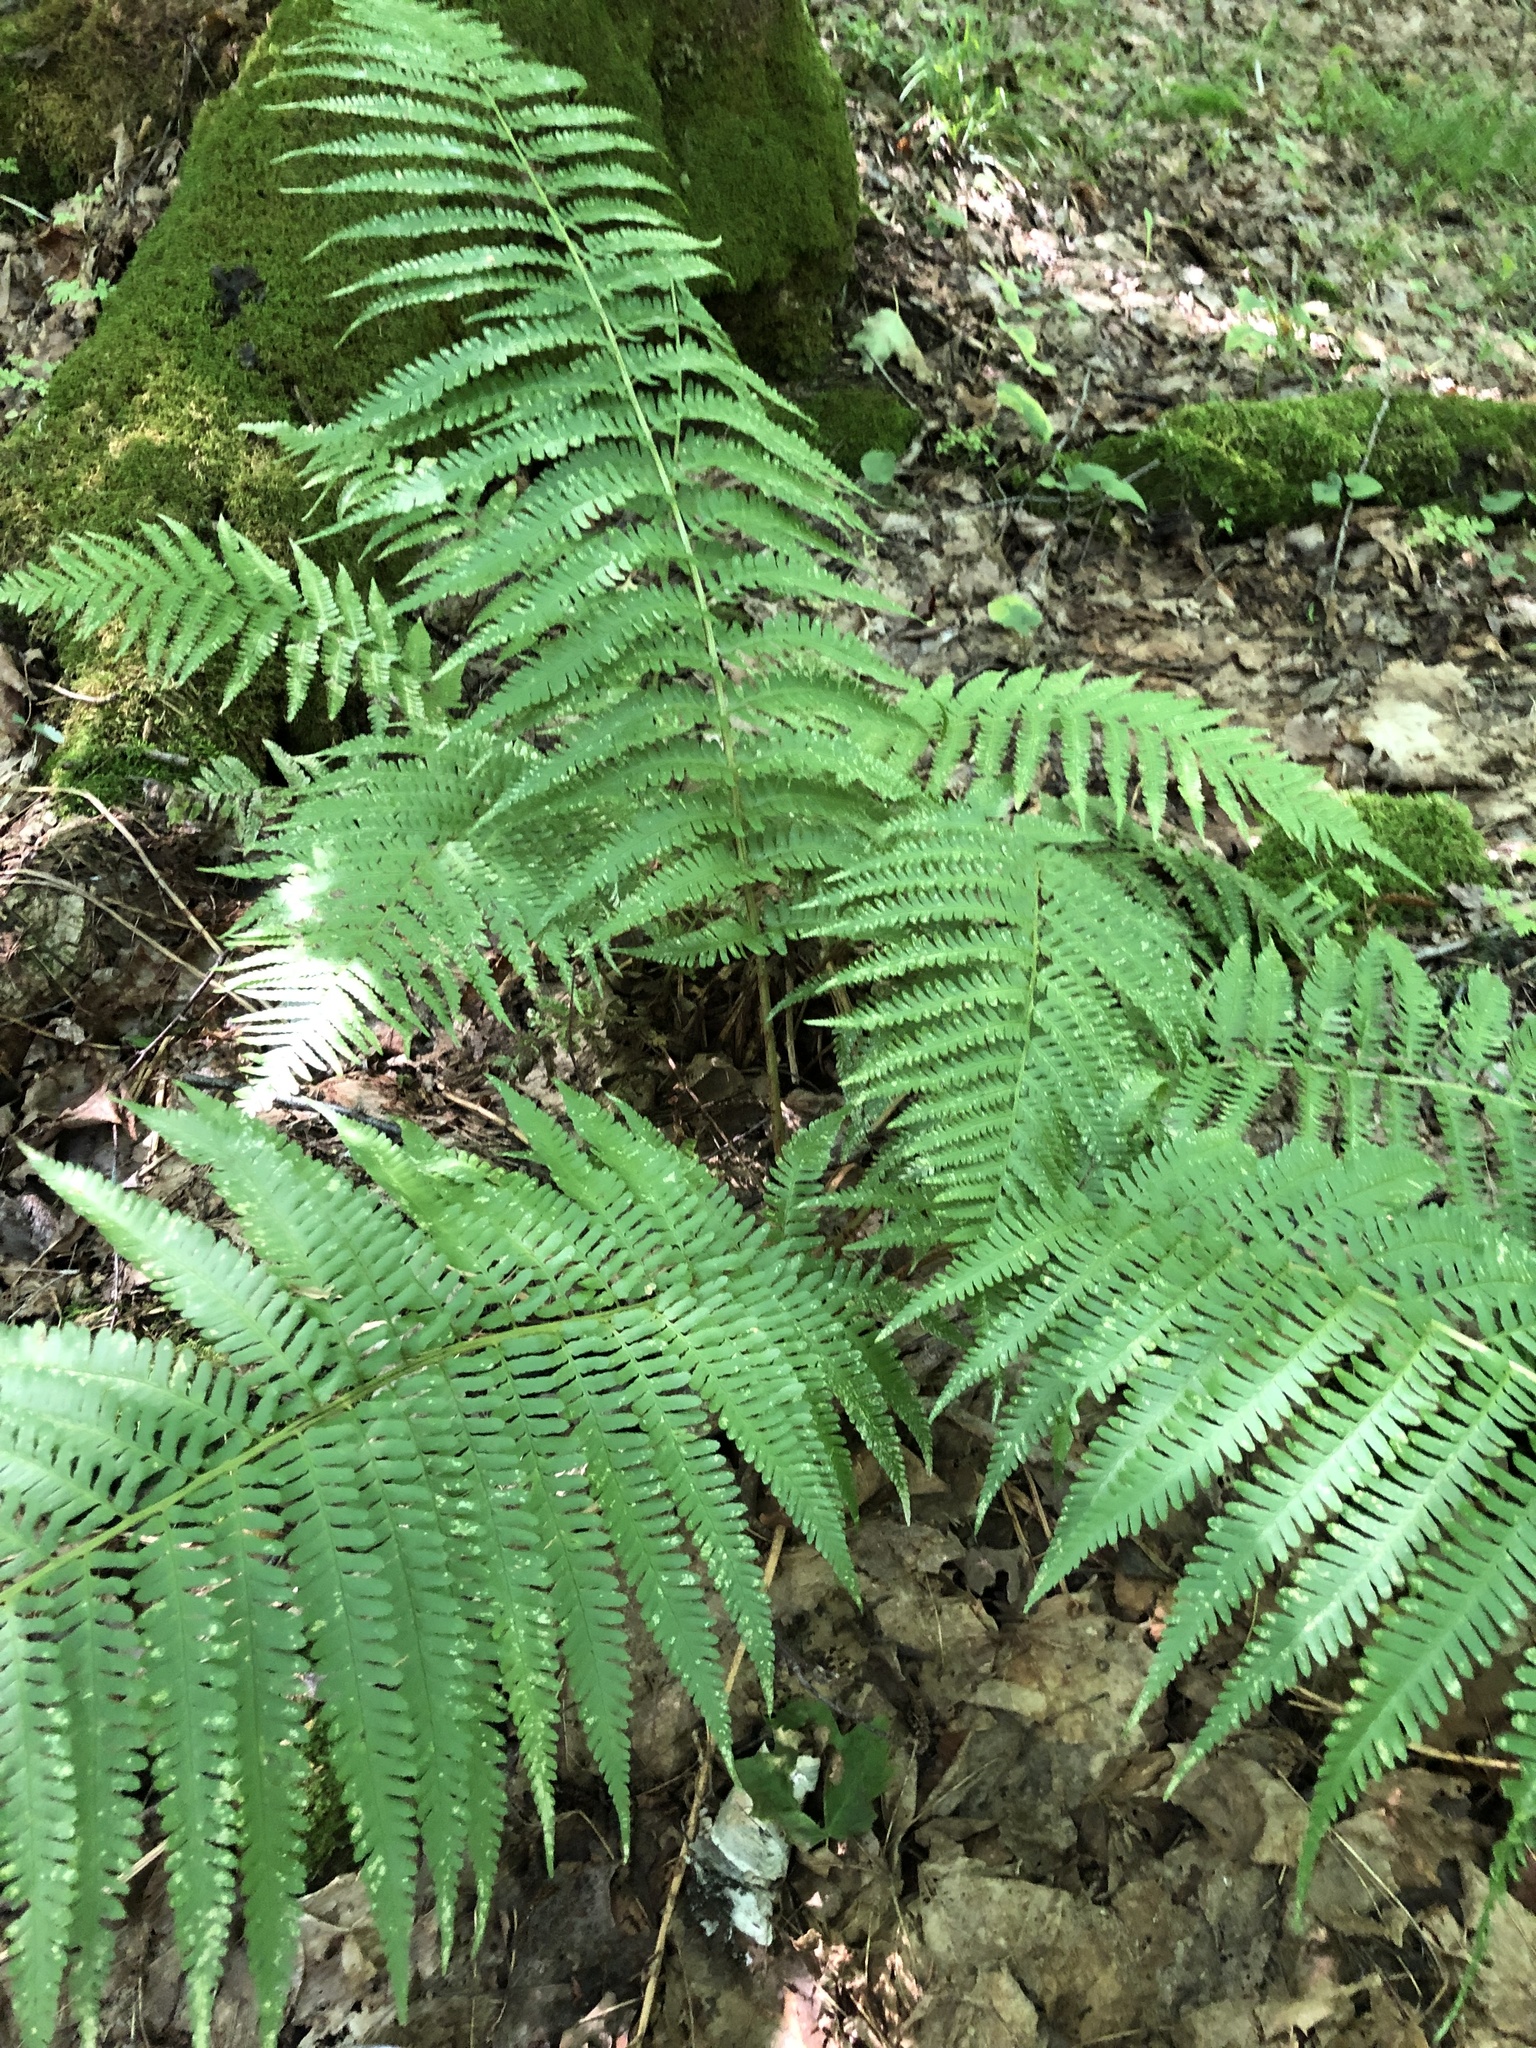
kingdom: Plantae
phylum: Tracheophyta
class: Polypodiopsida
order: Polypodiales
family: Dryopteridaceae
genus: Dryopteris
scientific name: Dryopteris filix-mas
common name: Male fern
